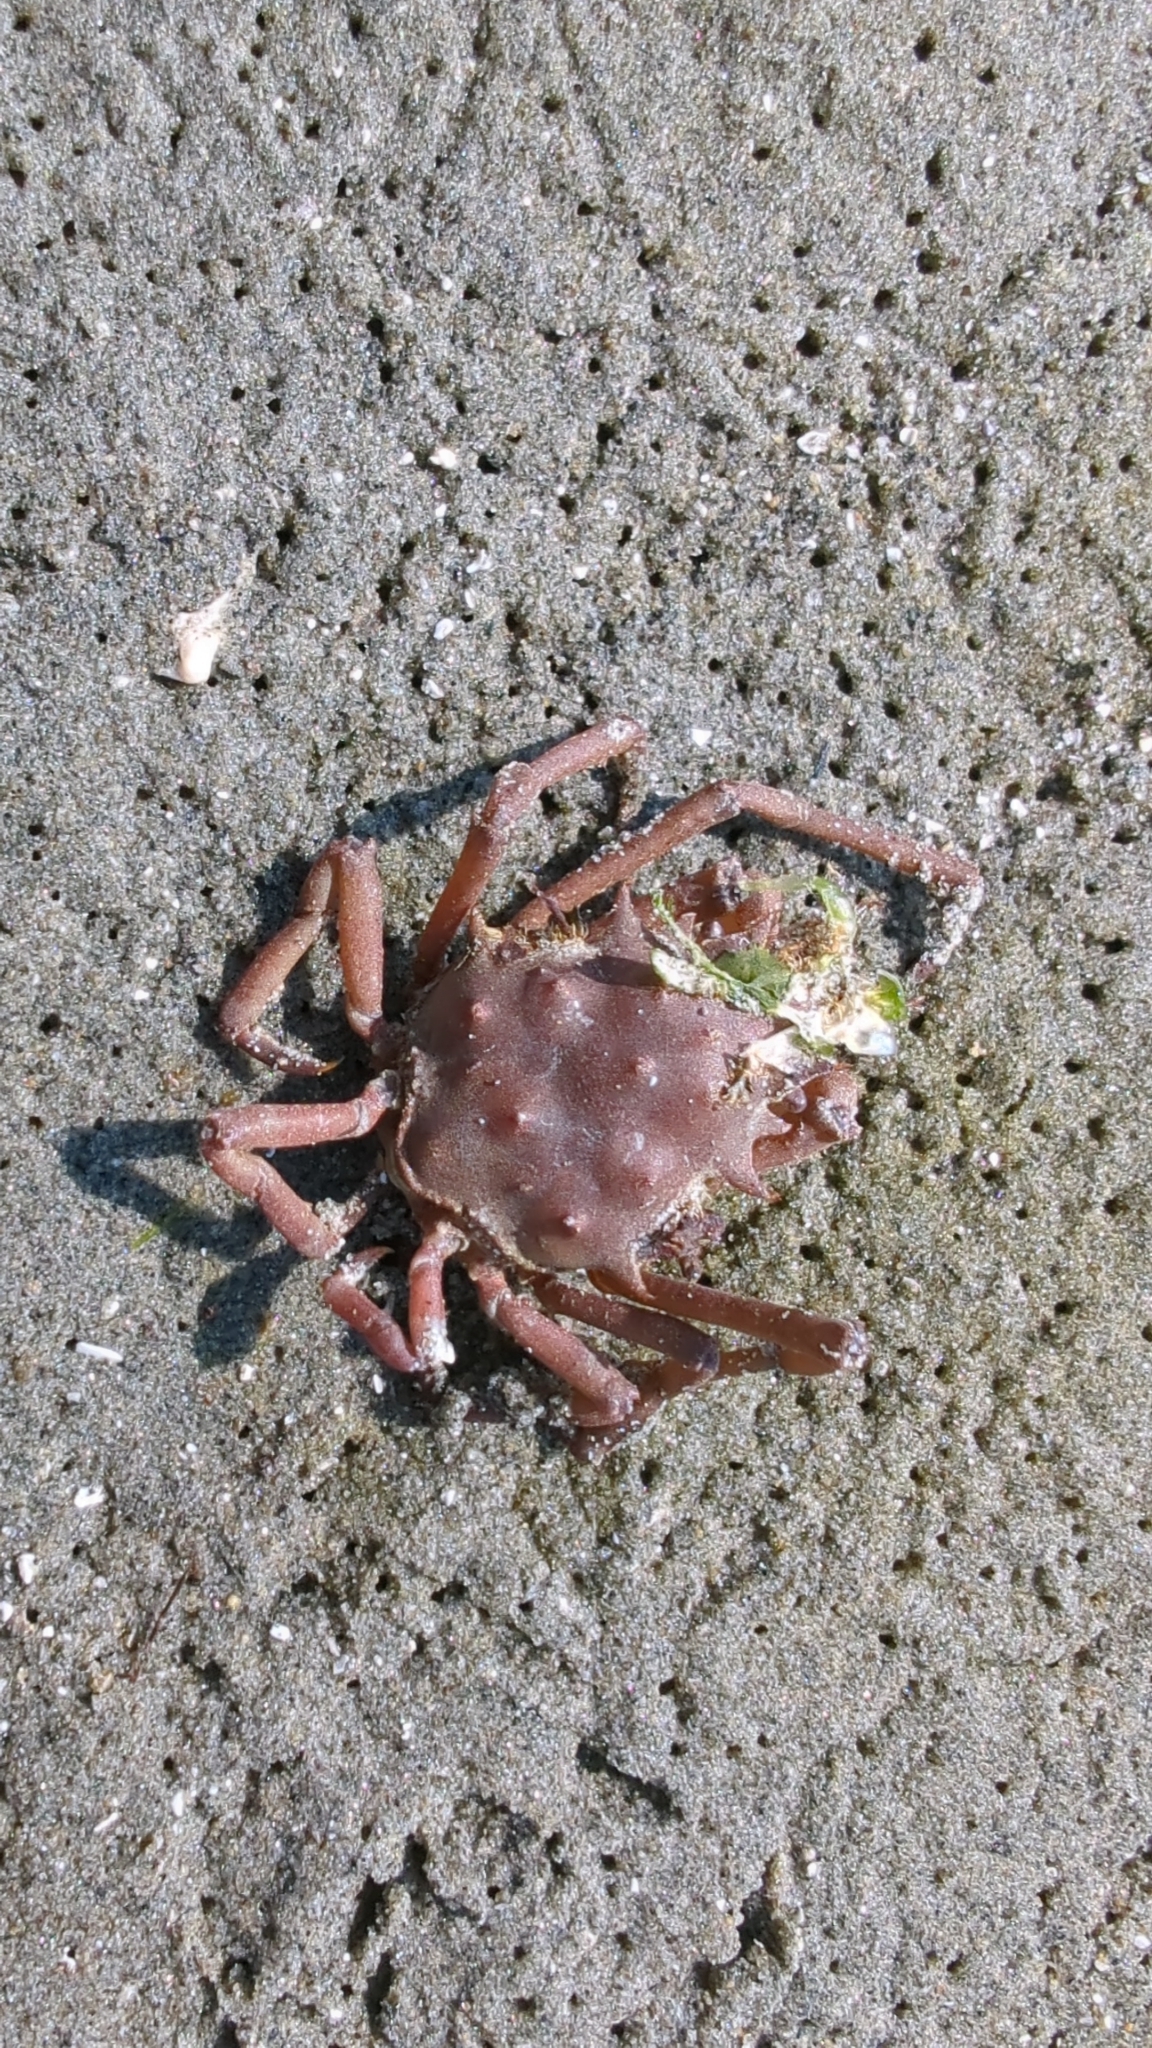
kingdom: Animalia
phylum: Arthropoda
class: Malacostraca
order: Decapoda
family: Epialtidae
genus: Pugettia
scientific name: Pugettia richii
